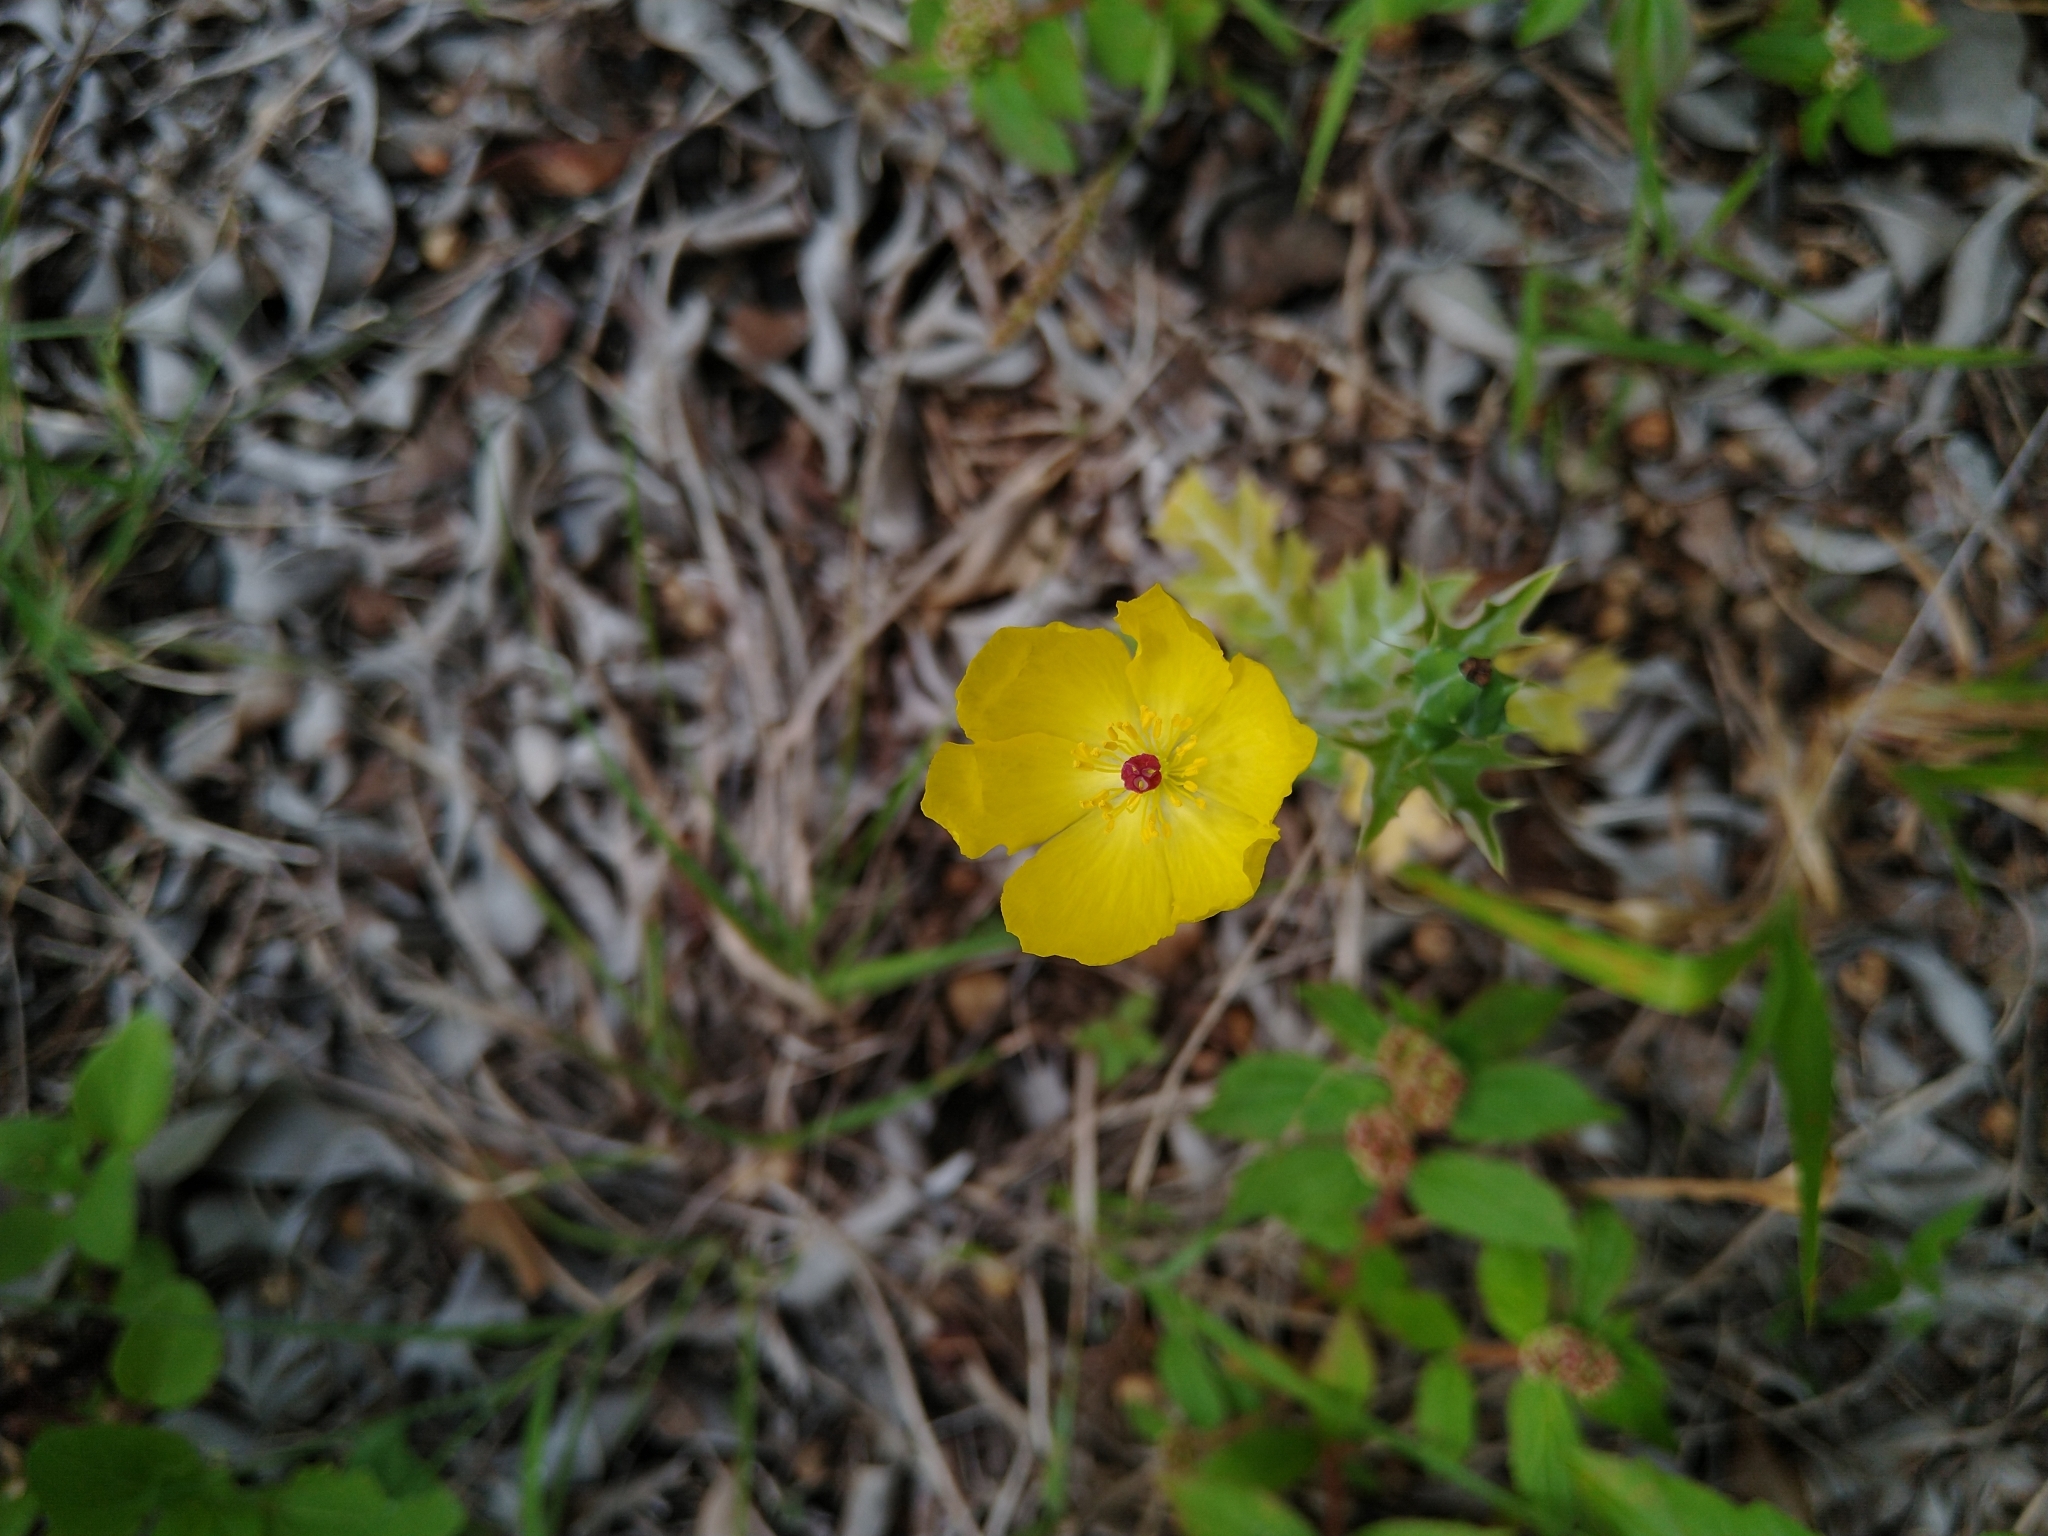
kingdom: Plantae
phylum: Tracheophyta
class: Magnoliopsida
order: Ranunculales
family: Papaveraceae
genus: Argemone
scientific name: Argemone mexicana
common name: Mexican poppy
